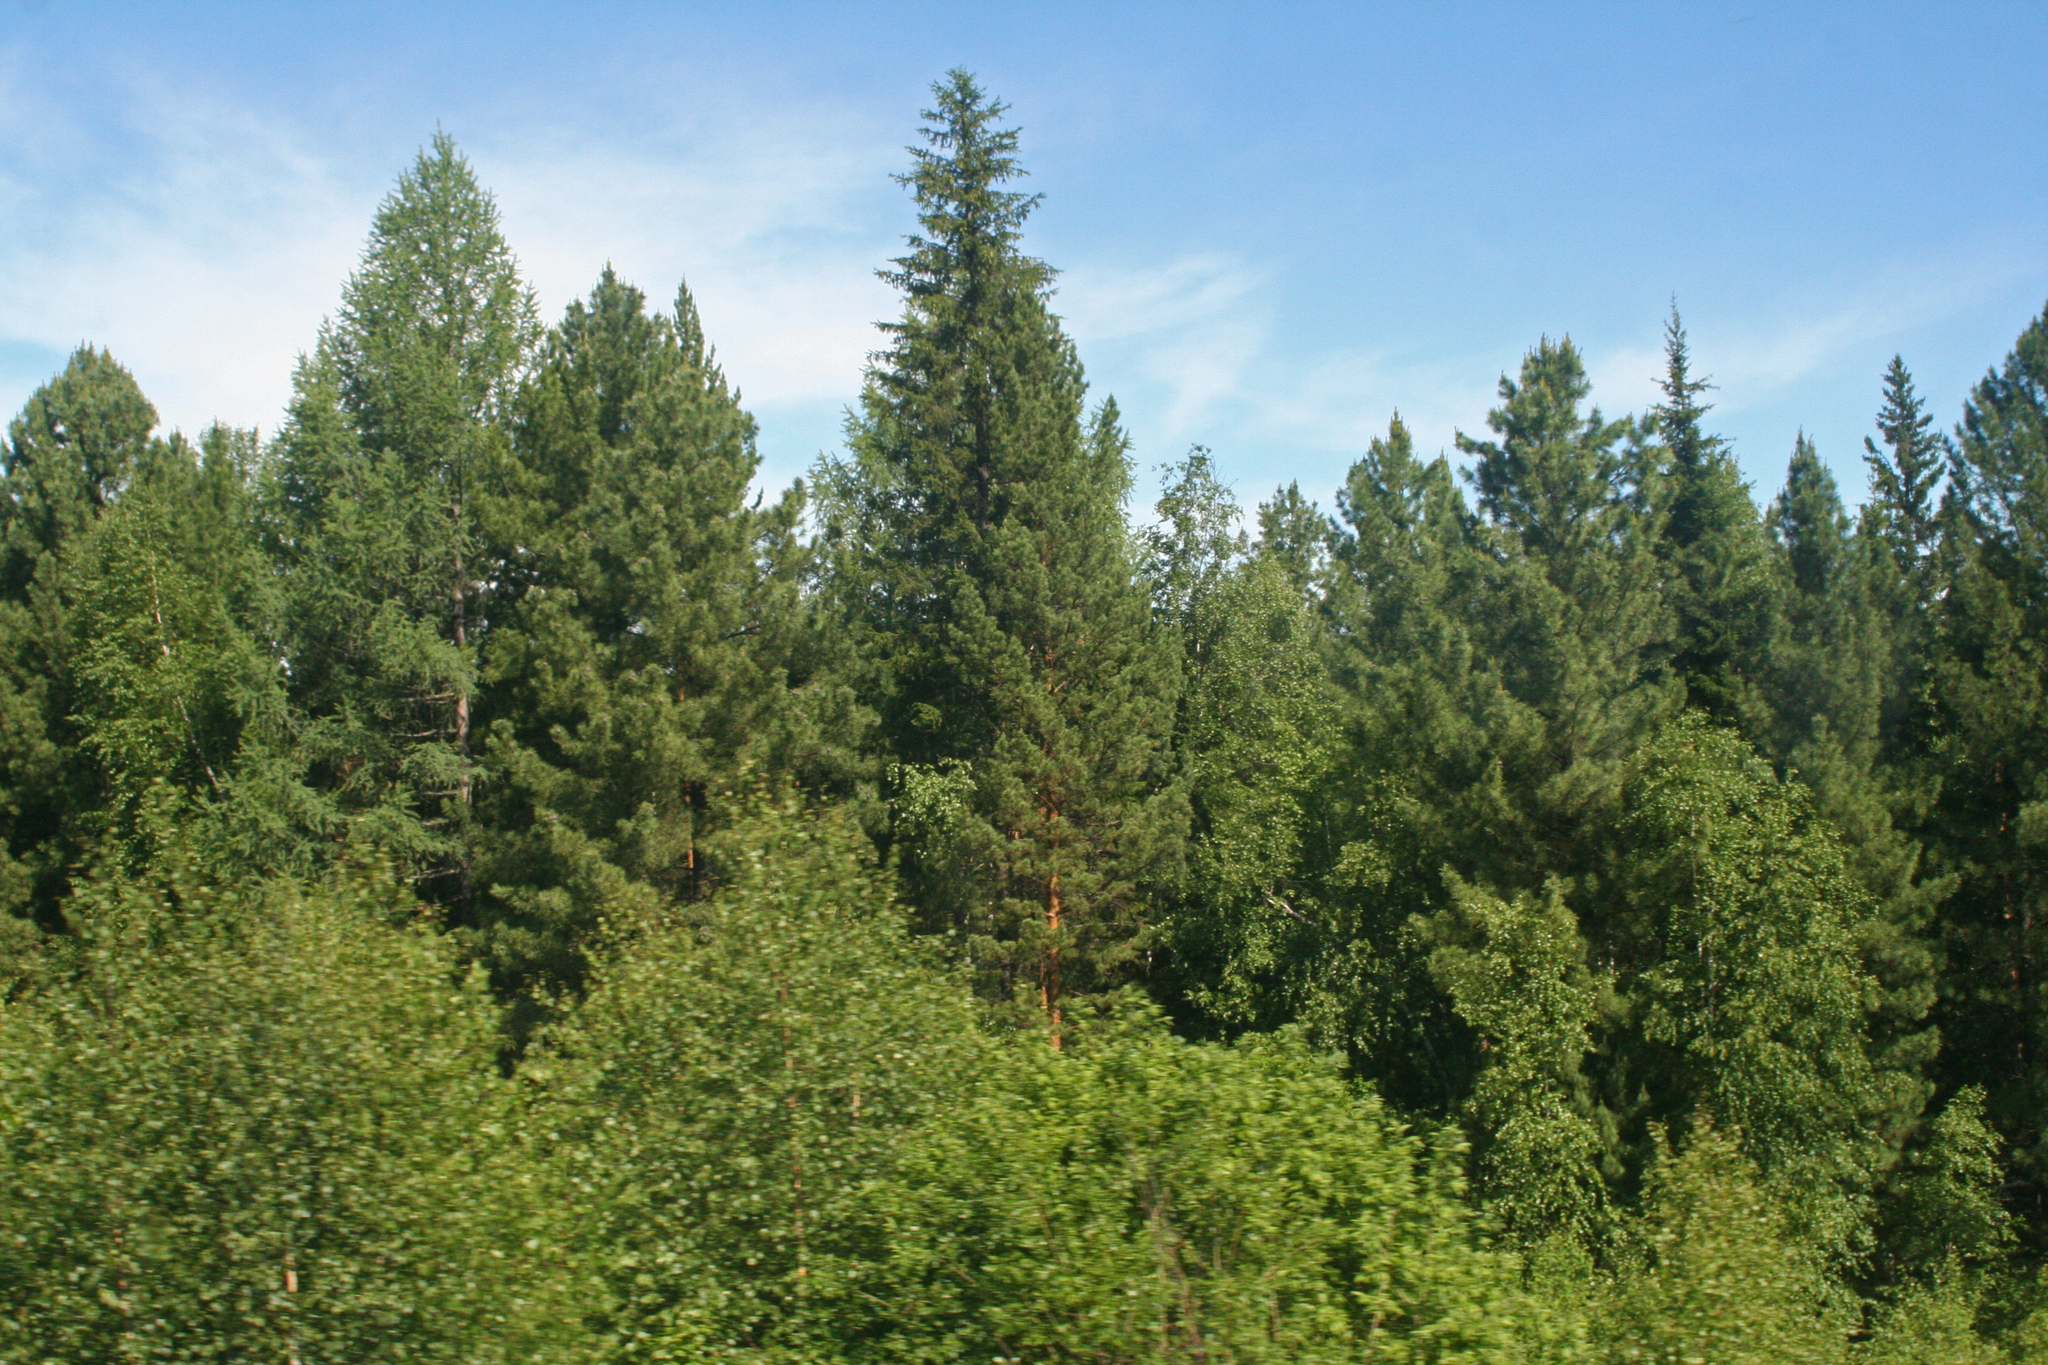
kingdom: Plantae
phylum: Tracheophyta
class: Pinopsida
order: Pinales
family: Pinaceae
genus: Picea
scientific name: Picea obovata
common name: Siberian spruce
